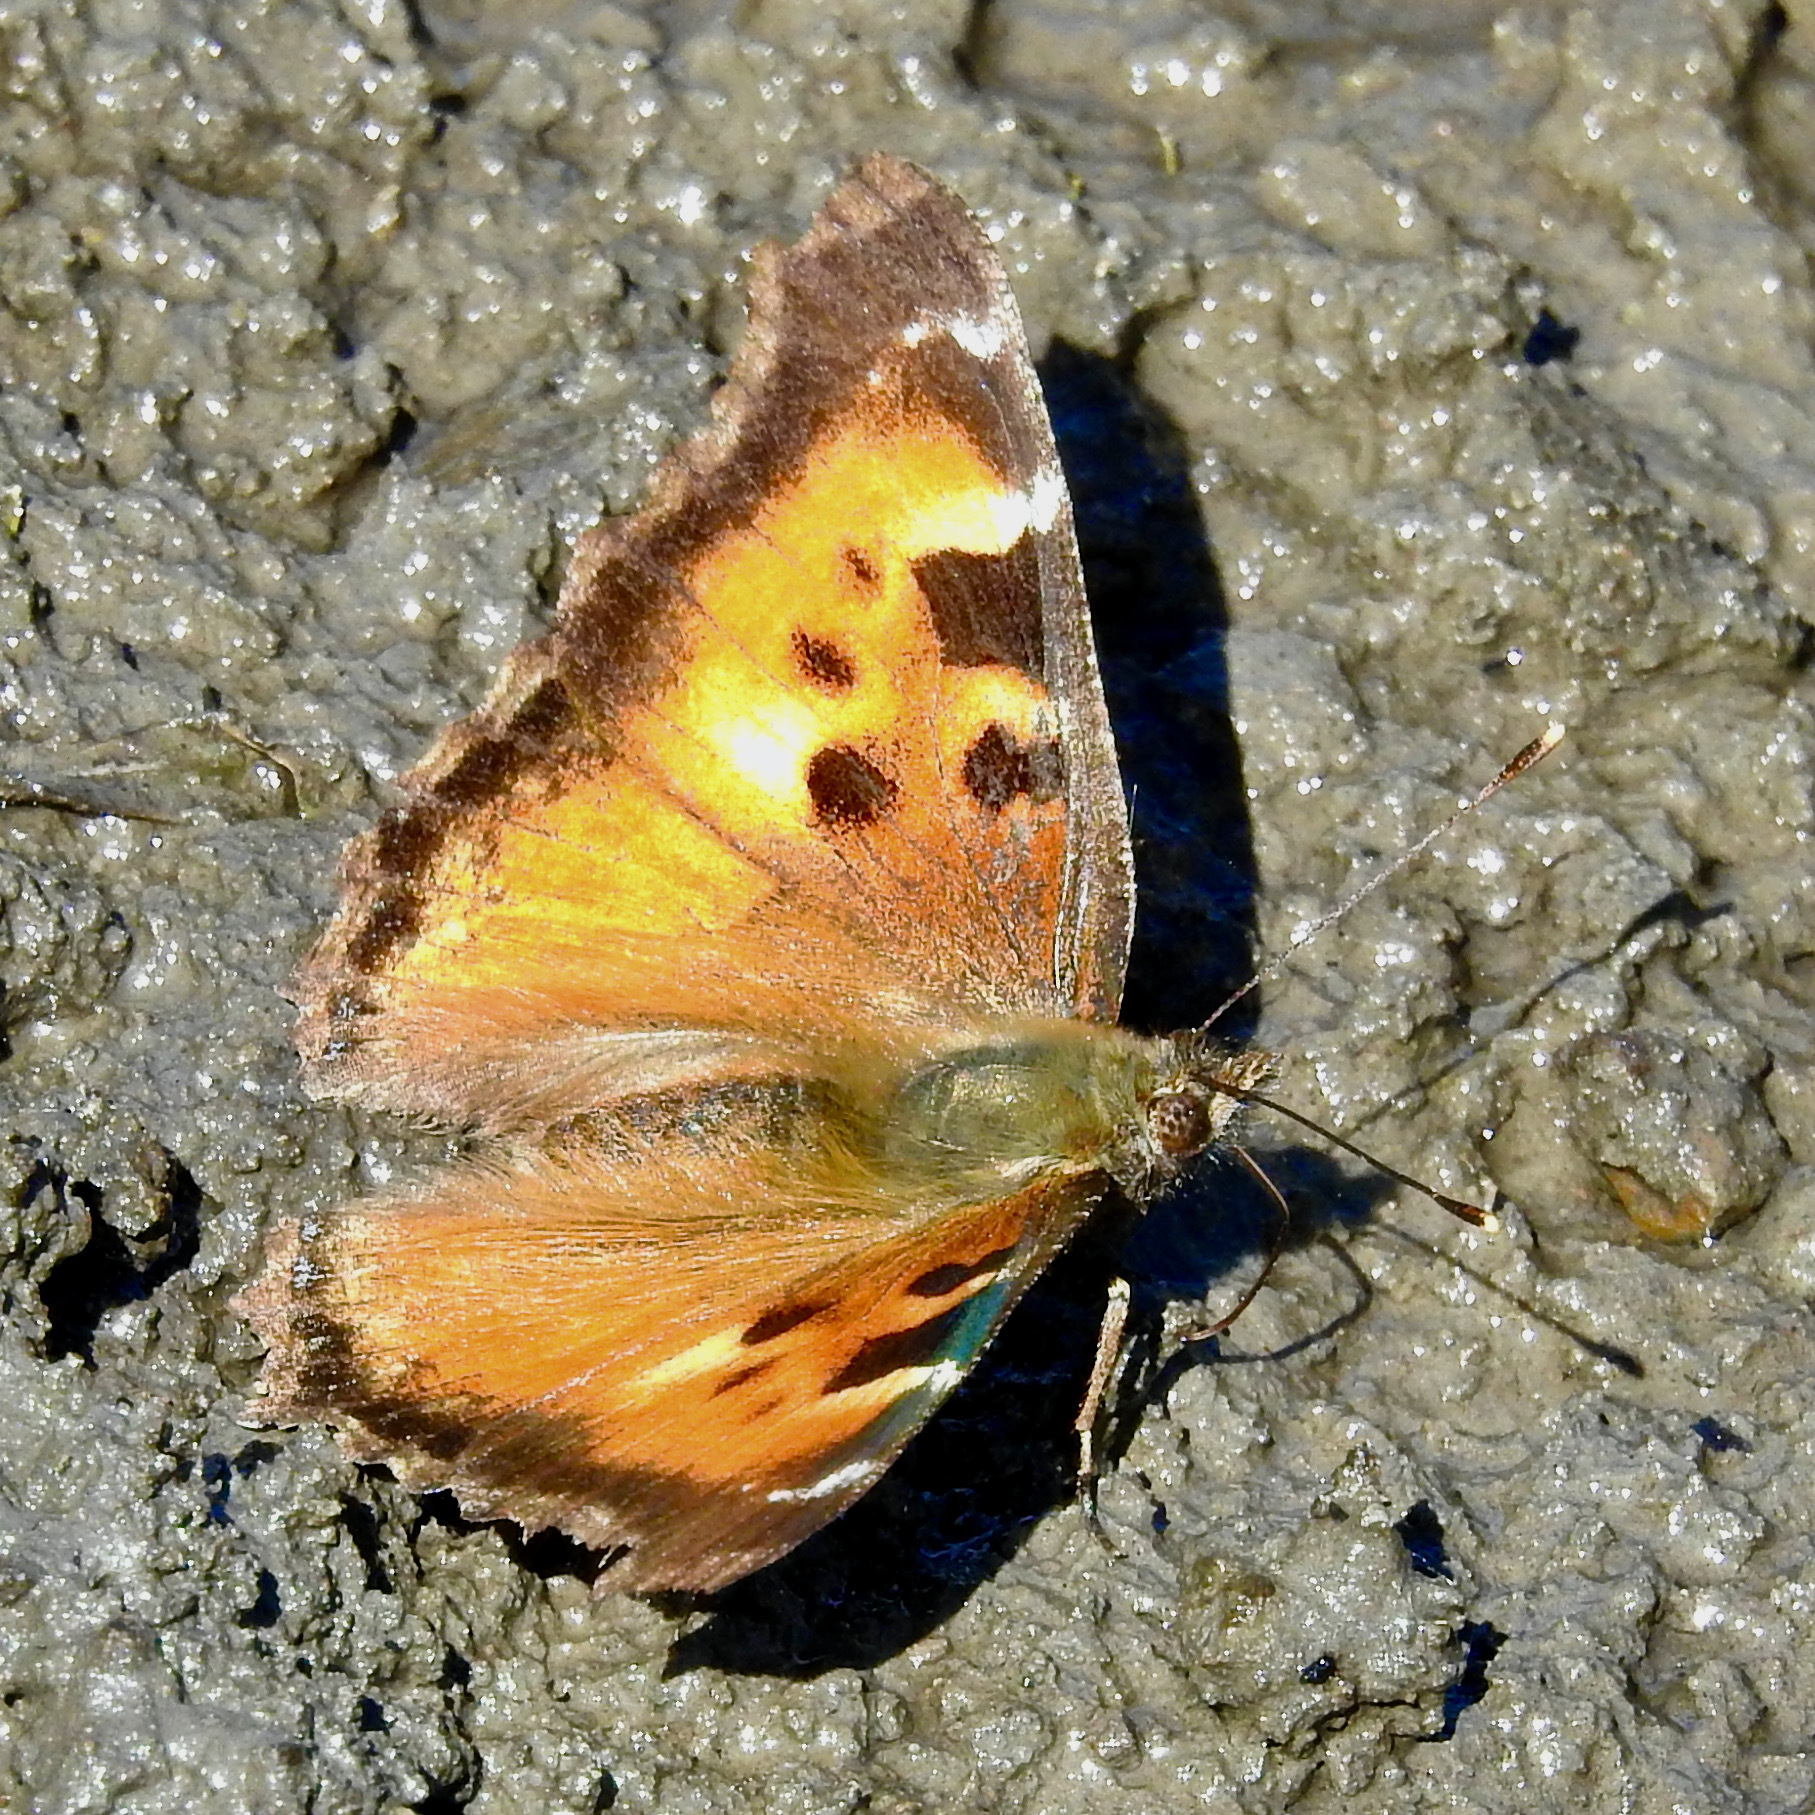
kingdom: Animalia
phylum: Arthropoda
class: Insecta
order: Lepidoptera
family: Nymphalidae
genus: Nymphalis
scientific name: Nymphalis californica
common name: California tortoiseshell
